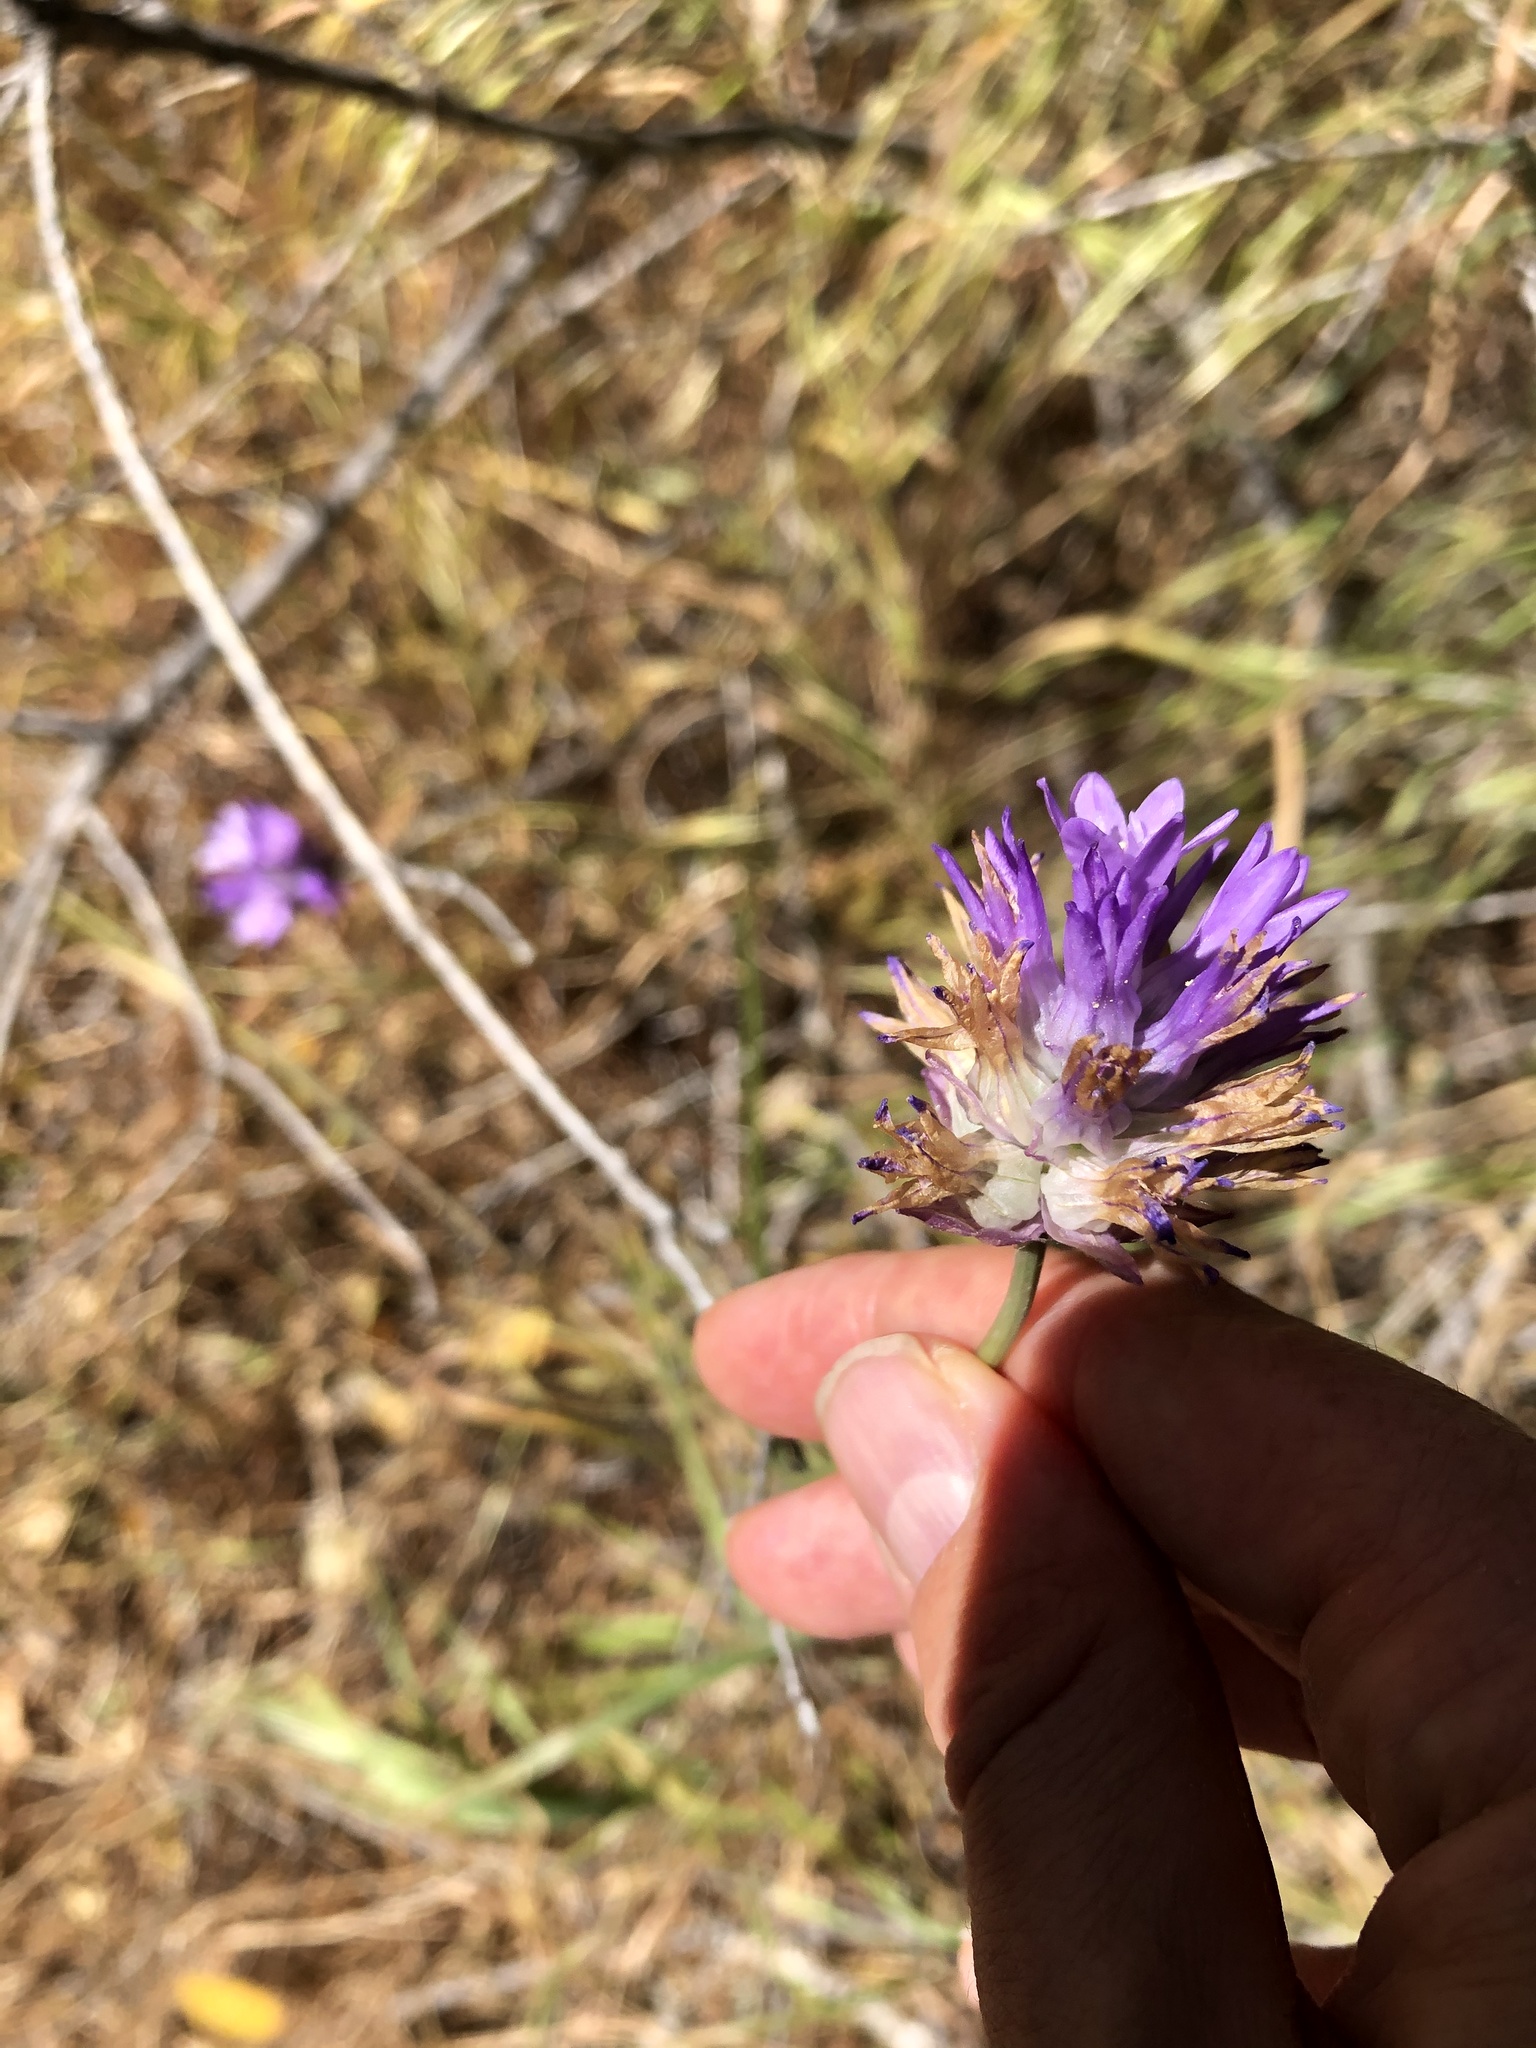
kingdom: Plantae
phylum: Tracheophyta
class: Liliopsida
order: Asparagales
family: Asparagaceae
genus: Dichelostemma
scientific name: Dichelostemma congestum
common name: Fork-tooth ookow
